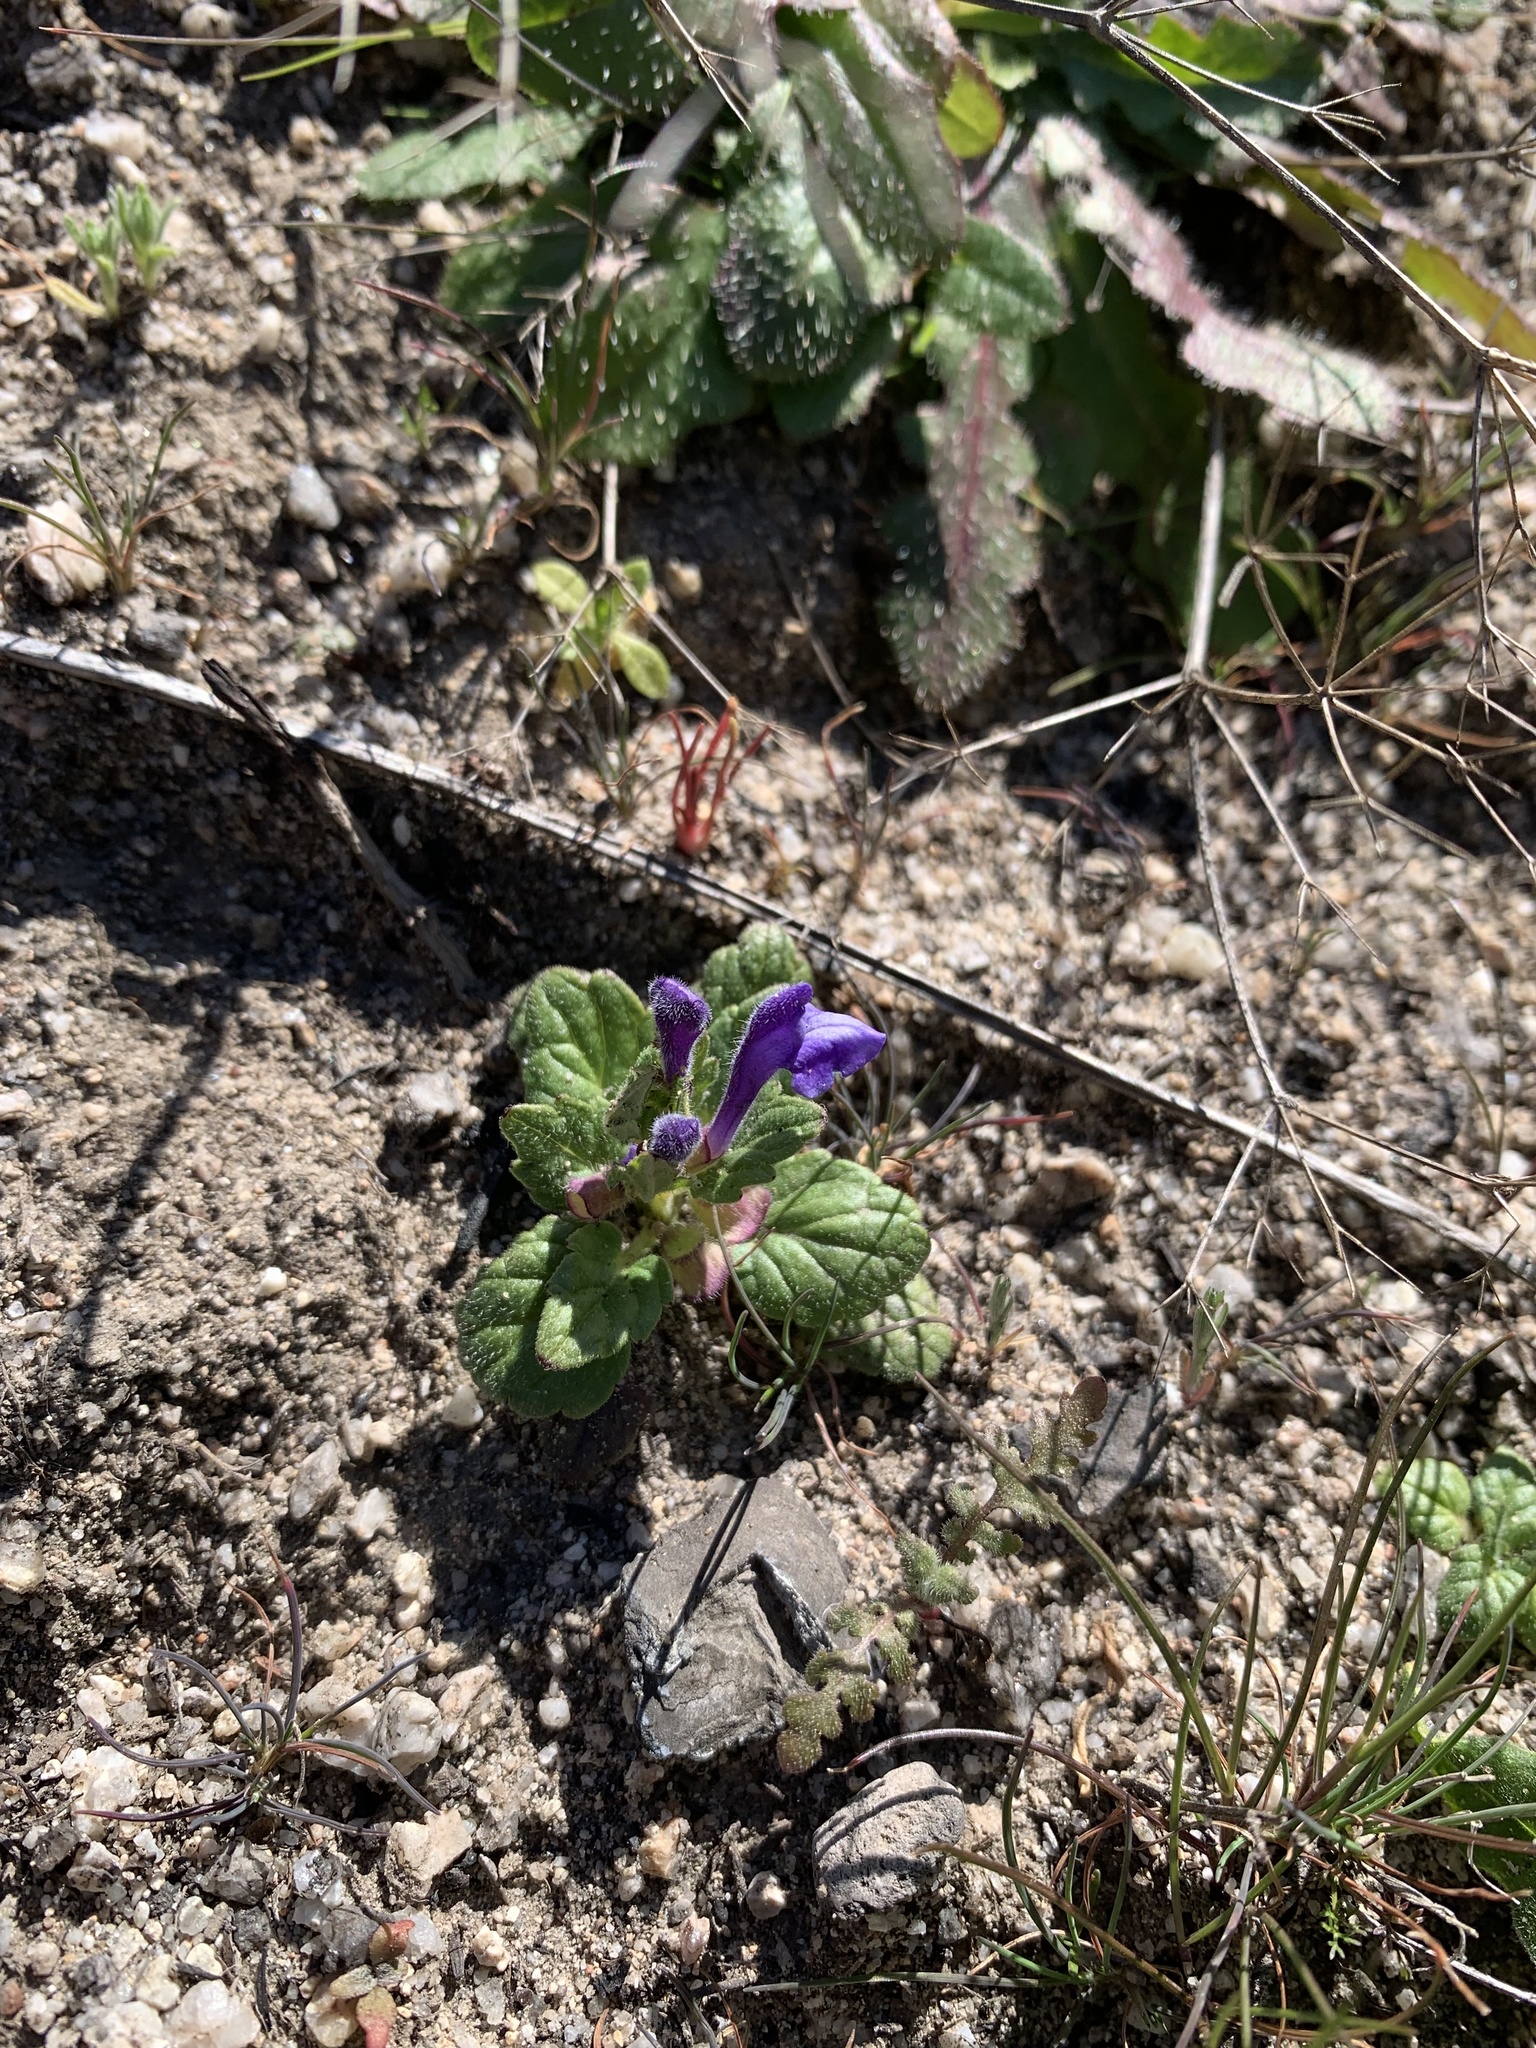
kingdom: Plantae
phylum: Tracheophyta
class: Magnoliopsida
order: Lamiales
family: Lamiaceae
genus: Scutellaria
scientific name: Scutellaria tuberosa
